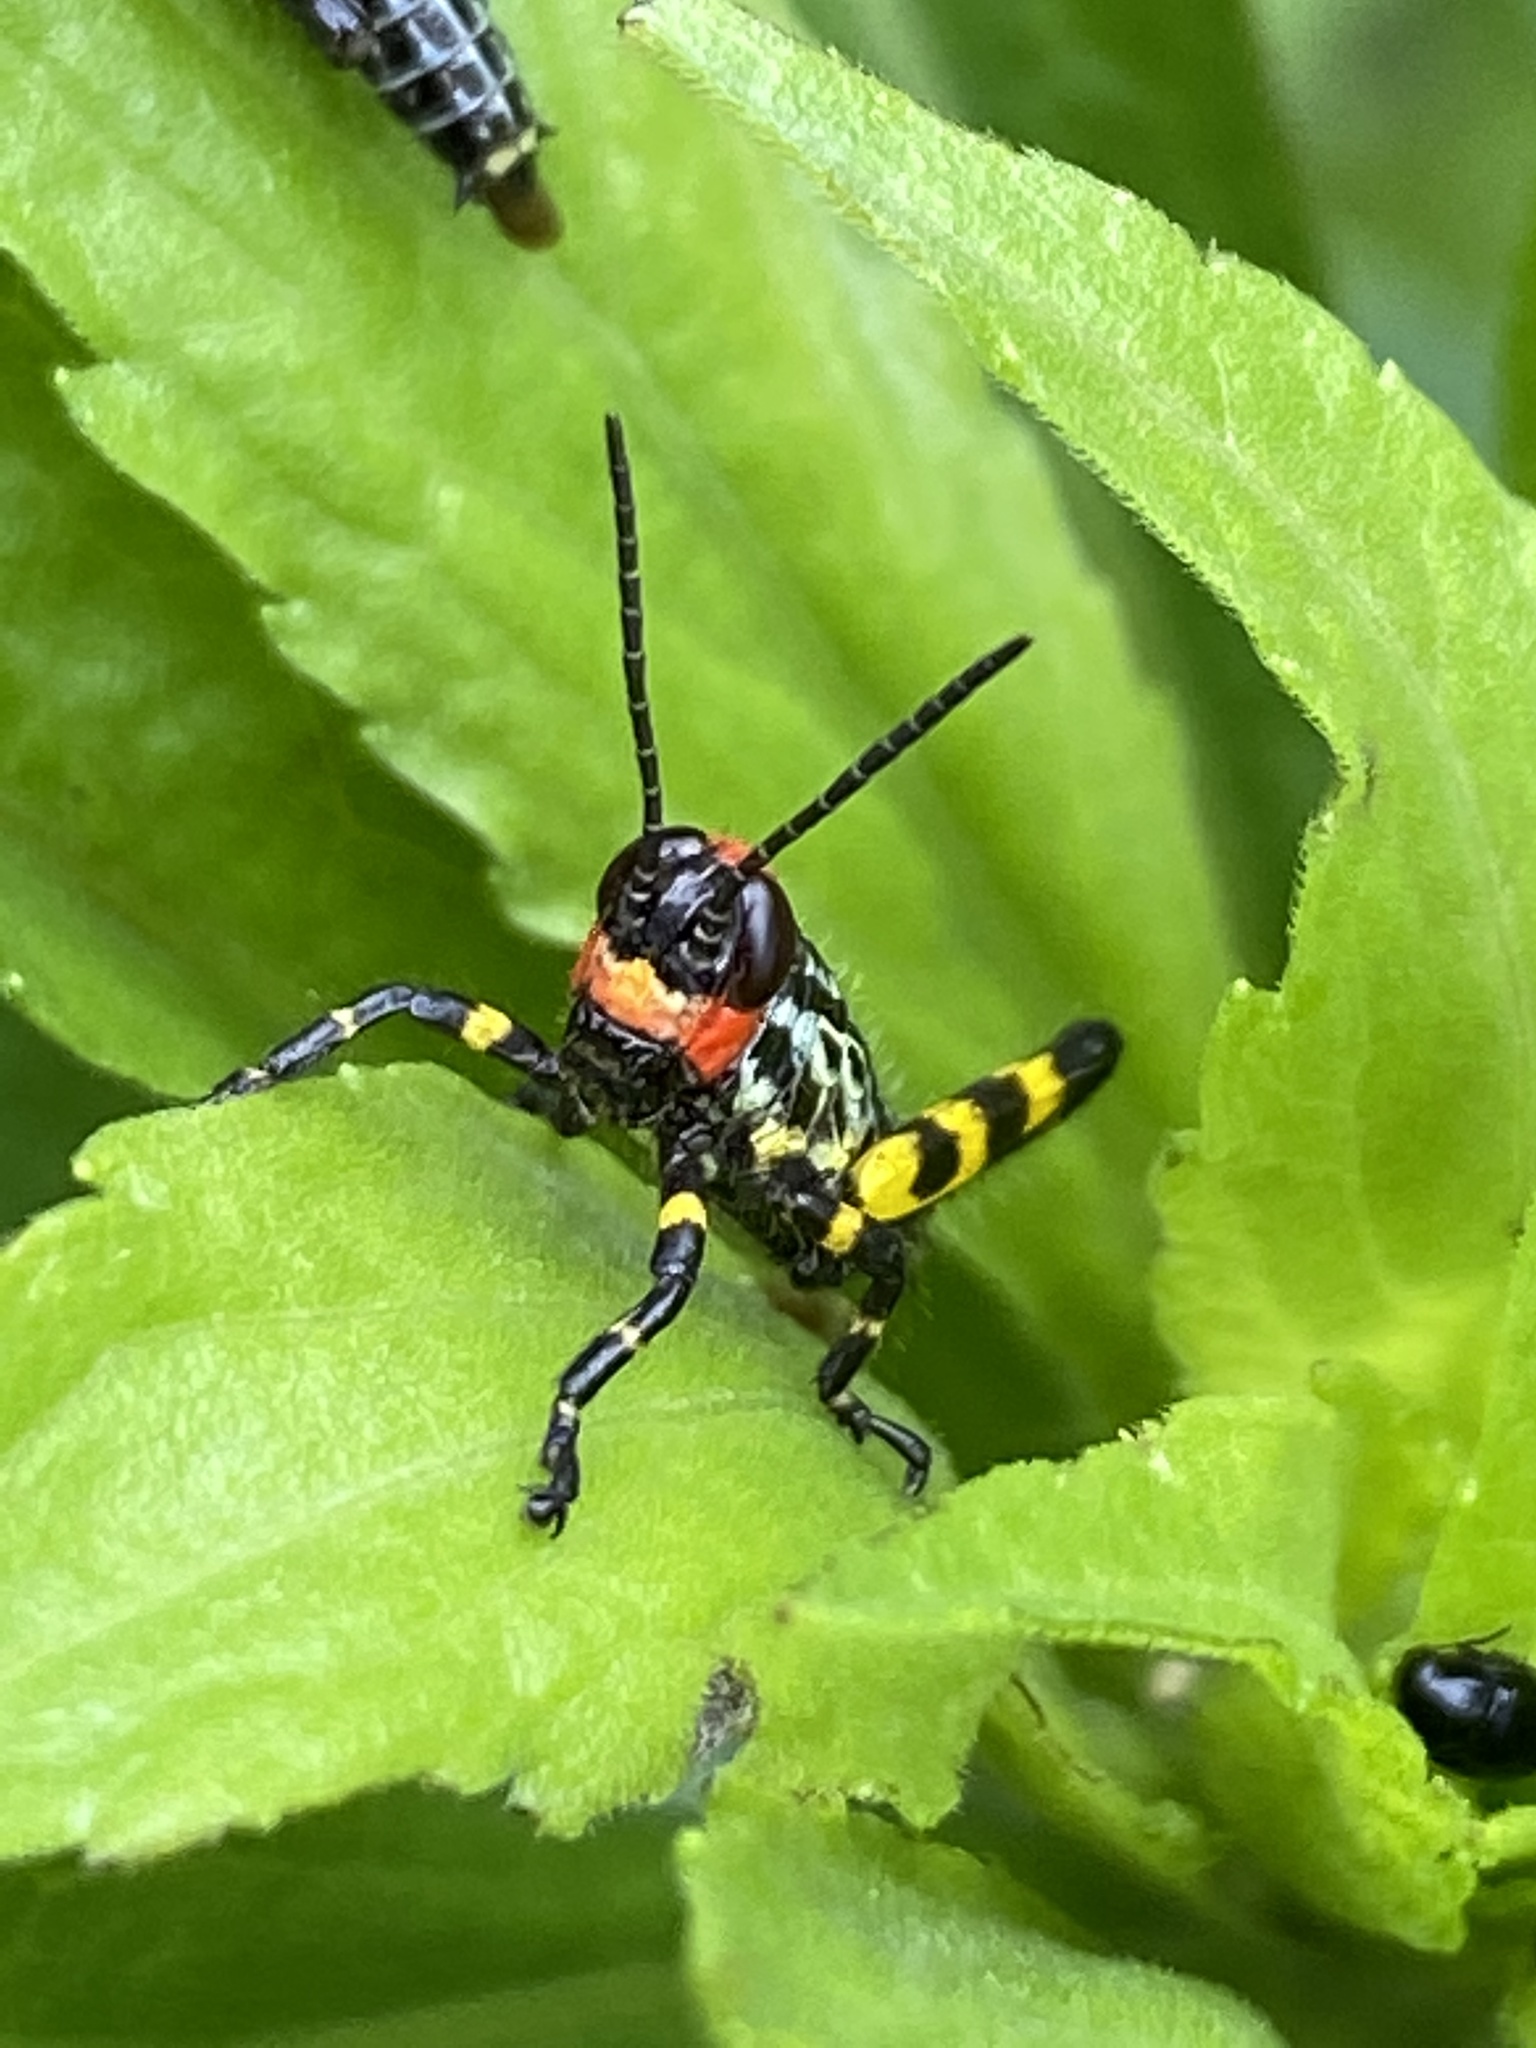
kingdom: Animalia
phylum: Arthropoda
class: Insecta
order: Orthoptera
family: Romaleidae
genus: Zoniopoda
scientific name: Zoniopoda tarsata
